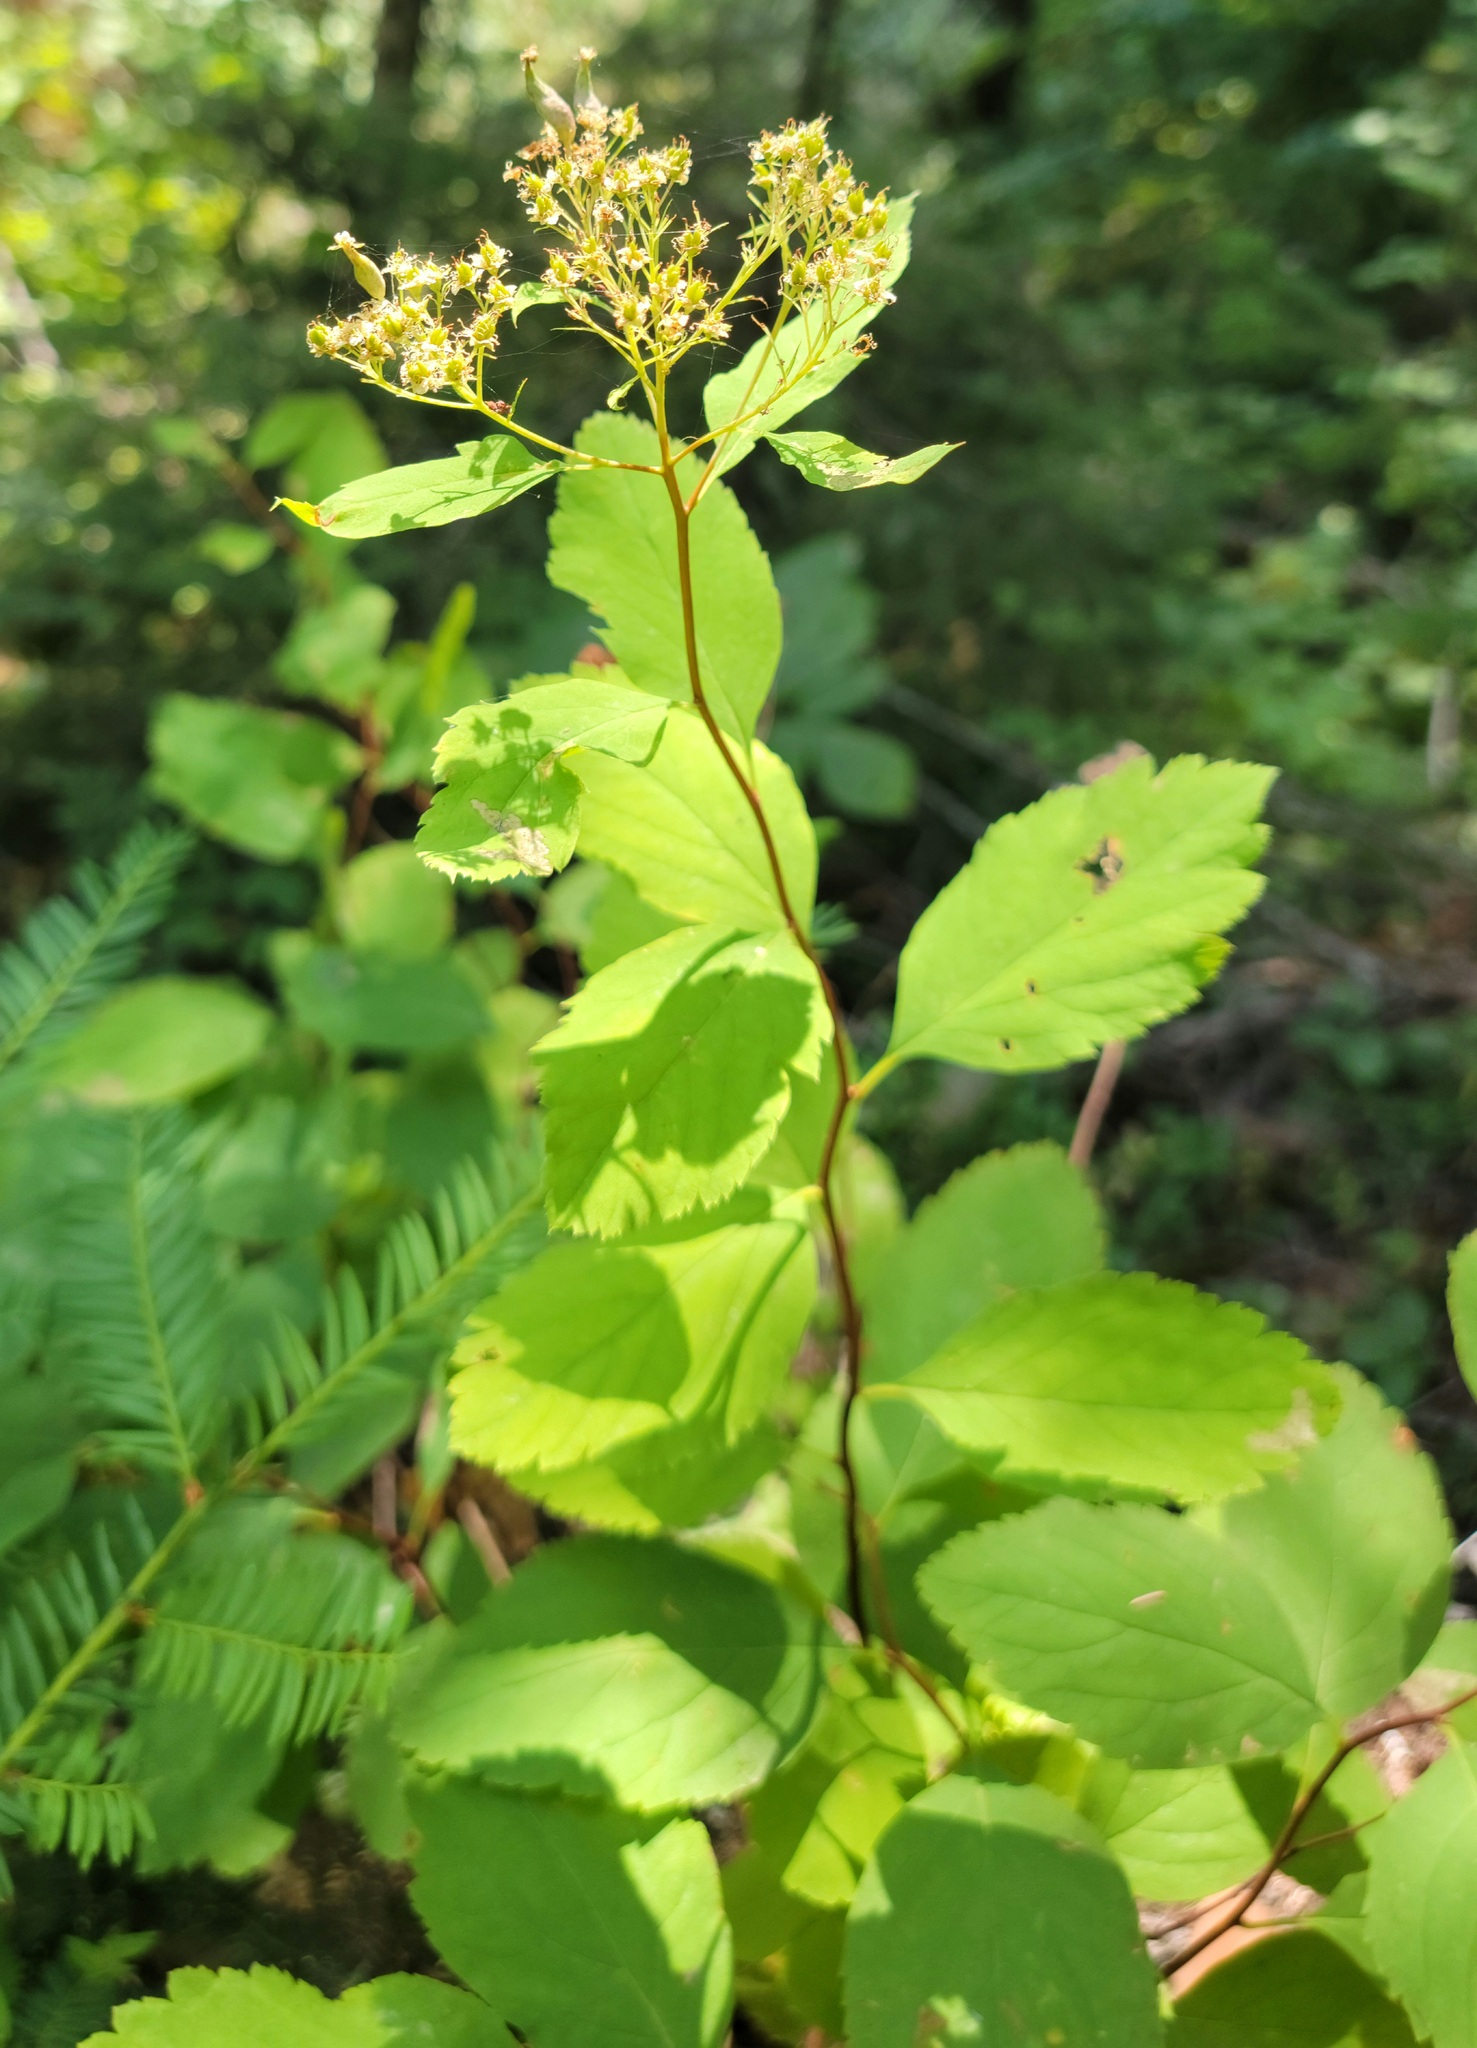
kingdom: Plantae
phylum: Tracheophyta
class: Magnoliopsida
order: Rosales
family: Rosaceae
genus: Spiraea
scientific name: Spiraea lucida
